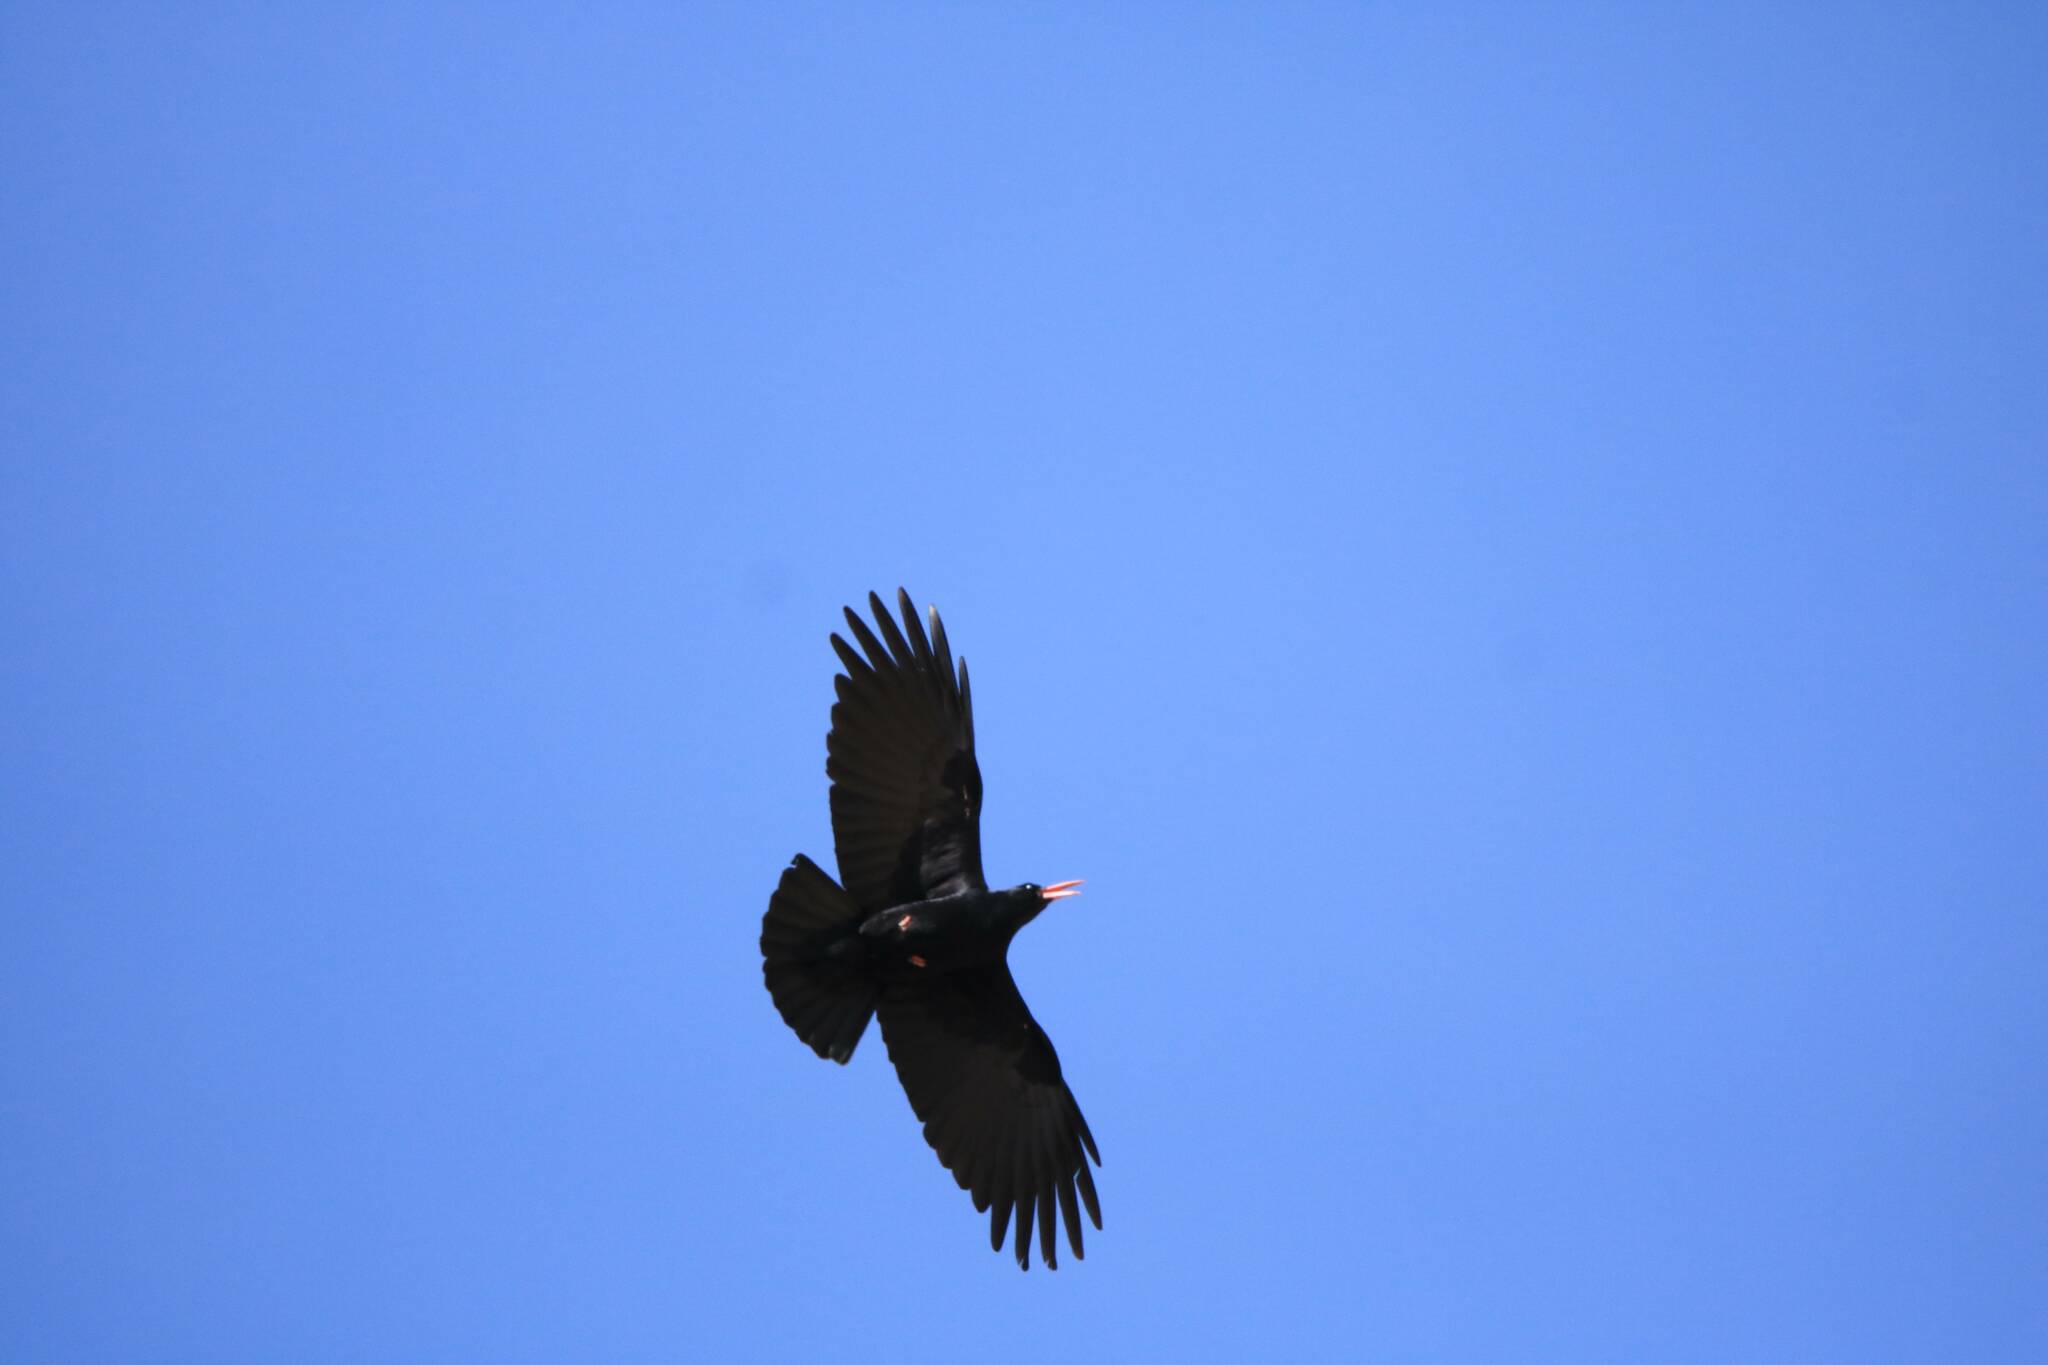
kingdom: Animalia
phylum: Chordata
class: Aves
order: Passeriformes
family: Corvidae
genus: Pyrrhocorax
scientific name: Pyrrhocorax pyrrhocorax
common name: Red-billed chough
